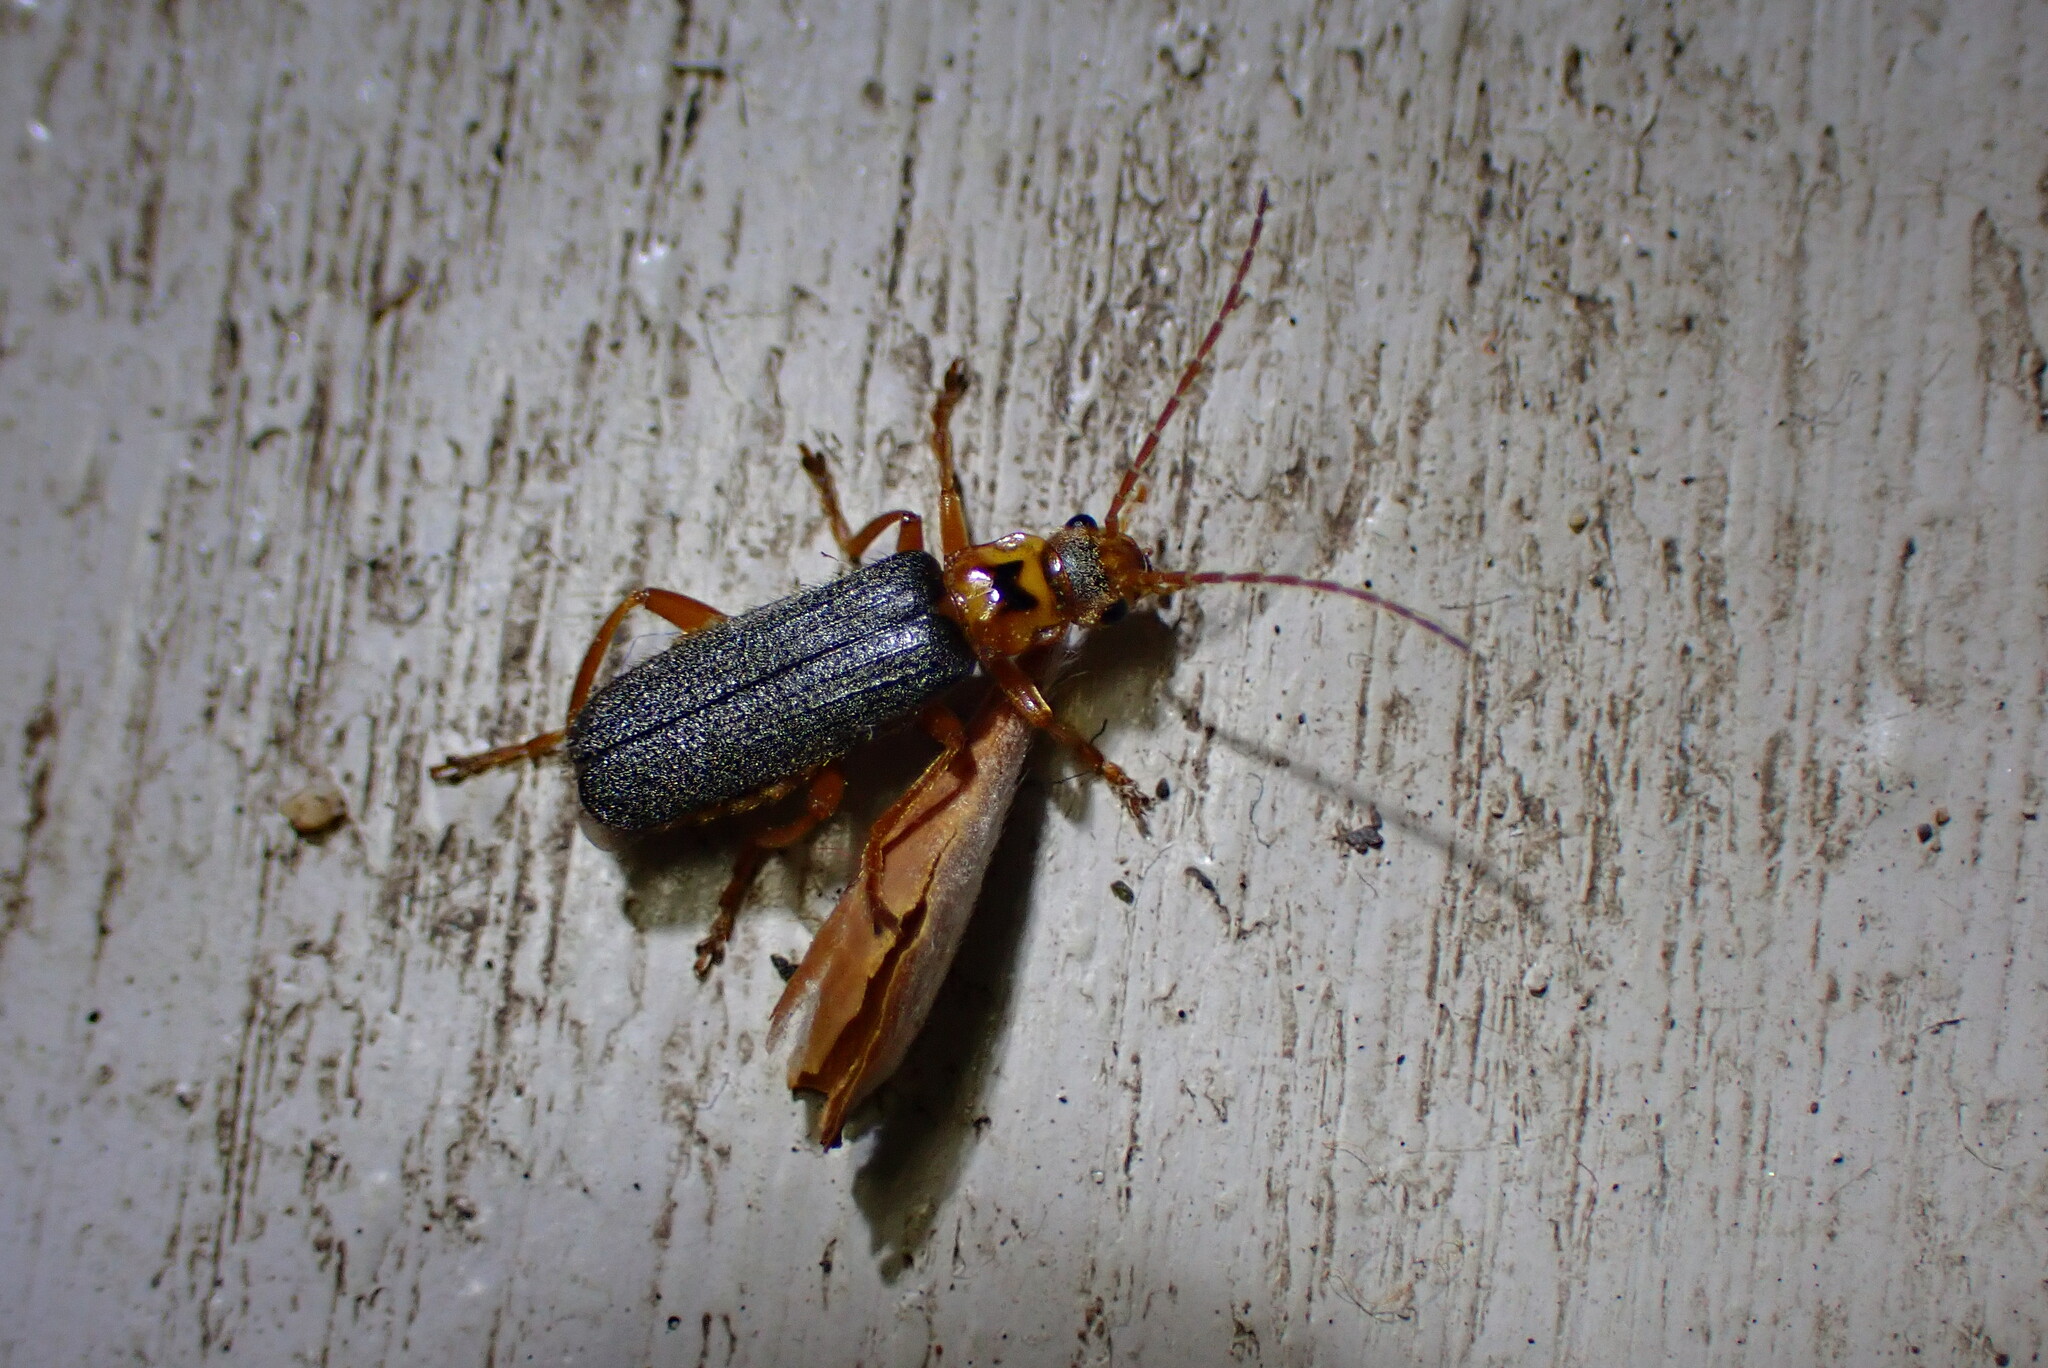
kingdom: Animalia
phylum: Arthropoda
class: Insecta
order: Coleoptera
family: Cantharidae
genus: Cultellunguis
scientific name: Cultellunguis americanus
